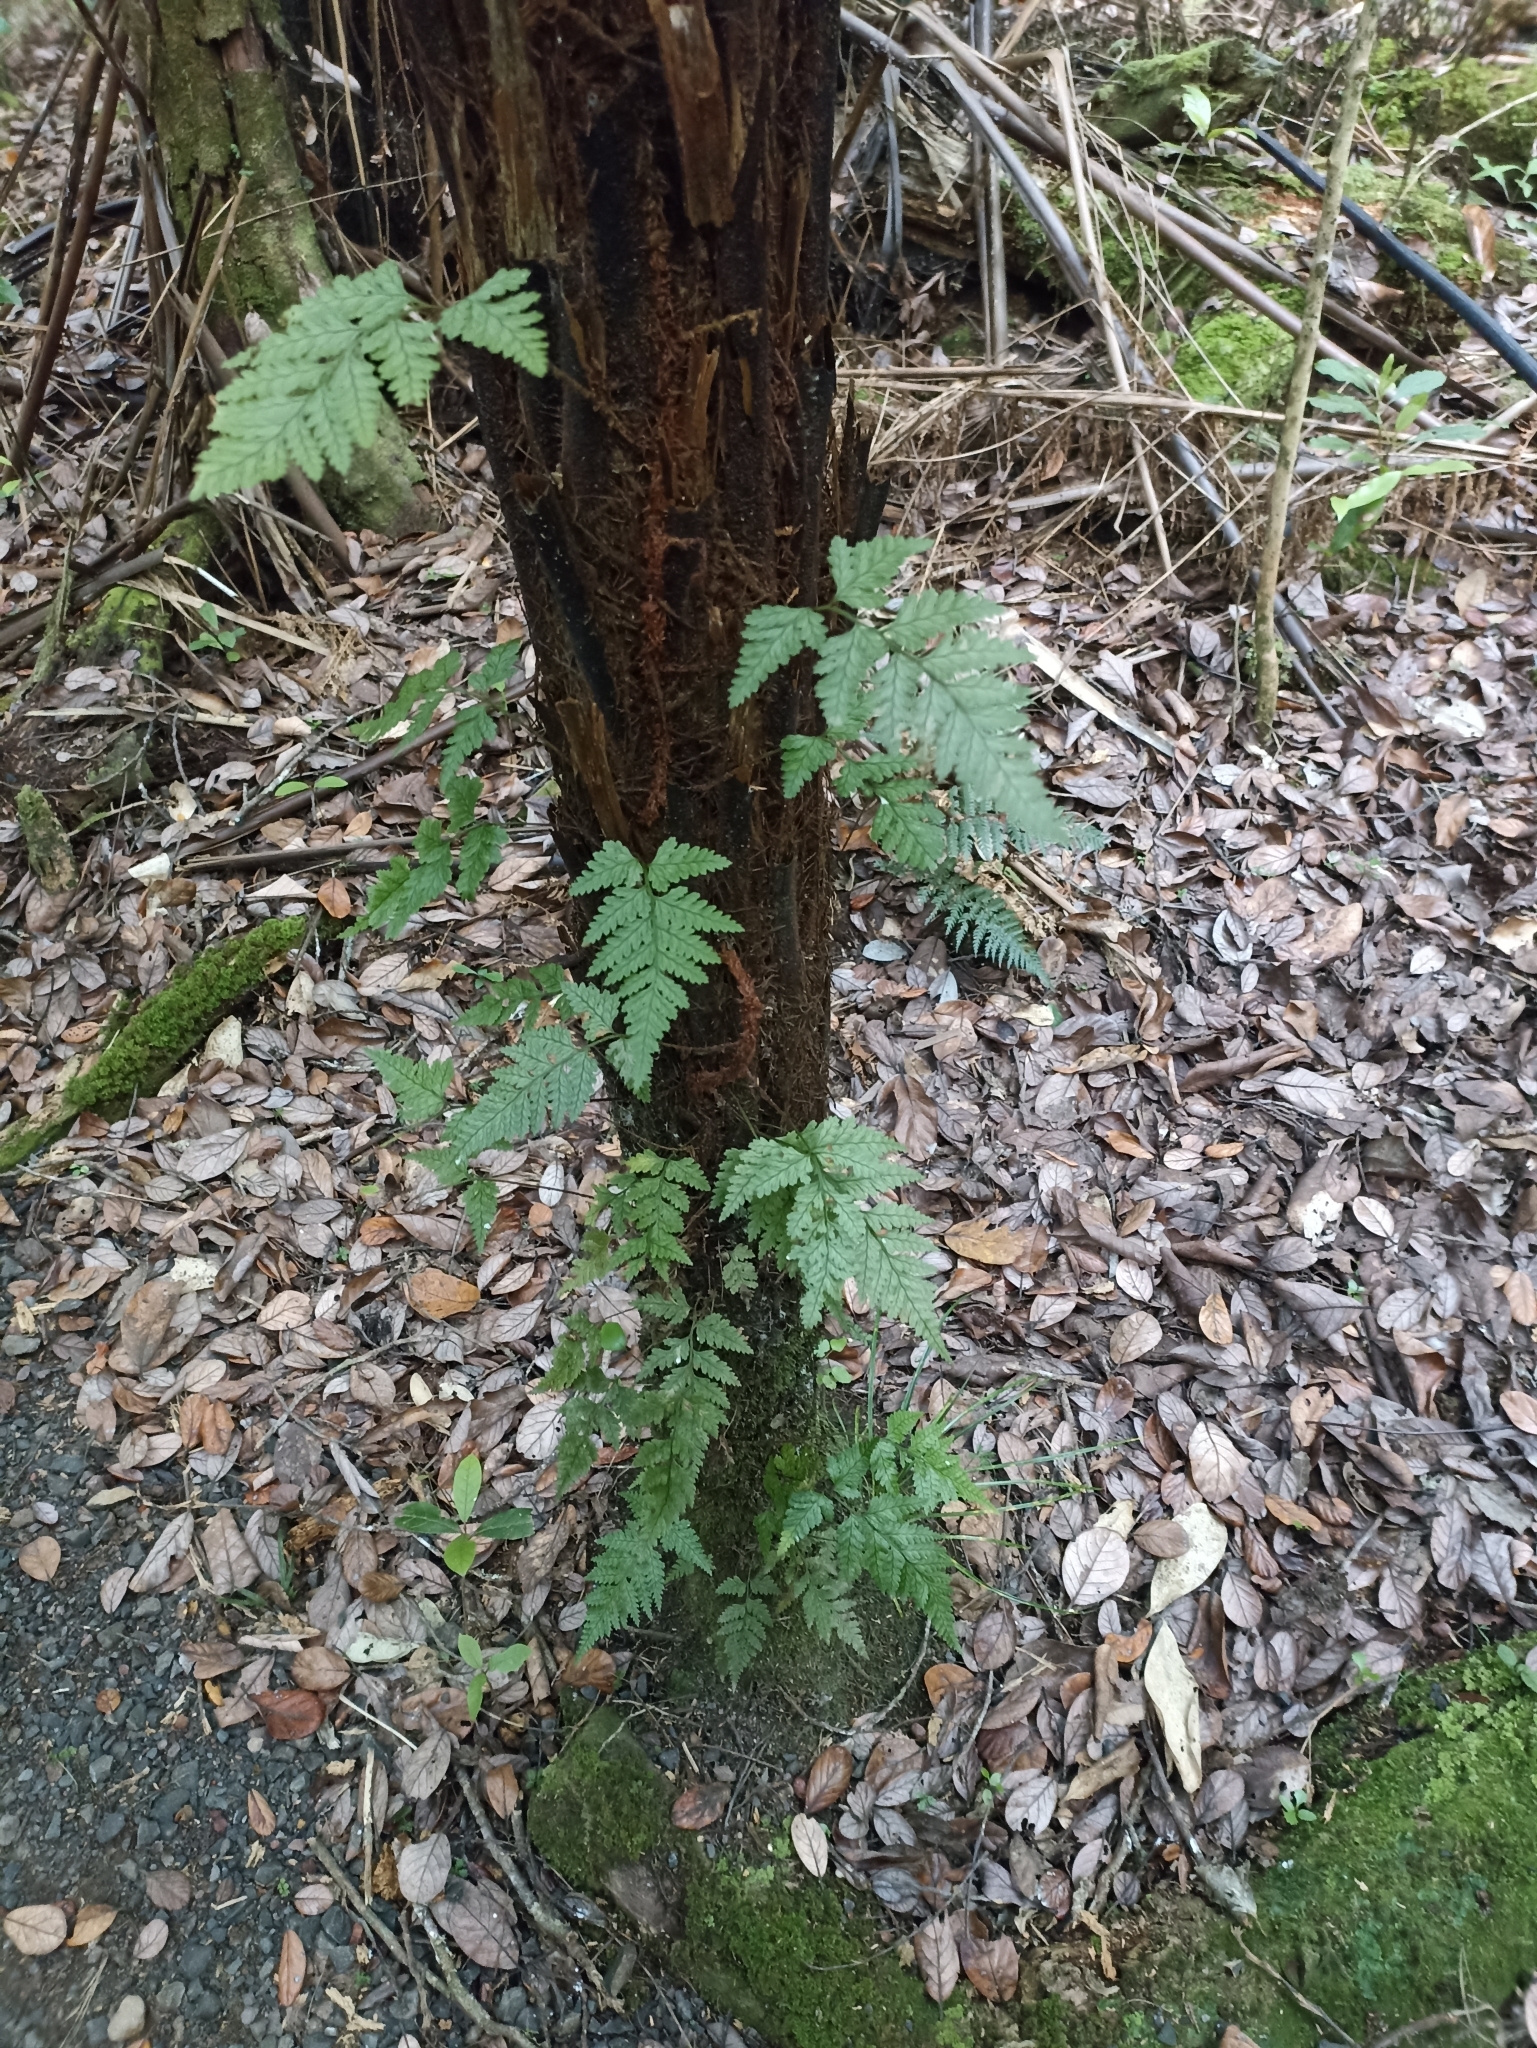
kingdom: Plantae
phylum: Tracheophyta
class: Polypodiopsida
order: Polypodiales
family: Dryopteridaceae
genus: Rumohra
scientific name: Rumohra adiantiformis
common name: Leather fern
